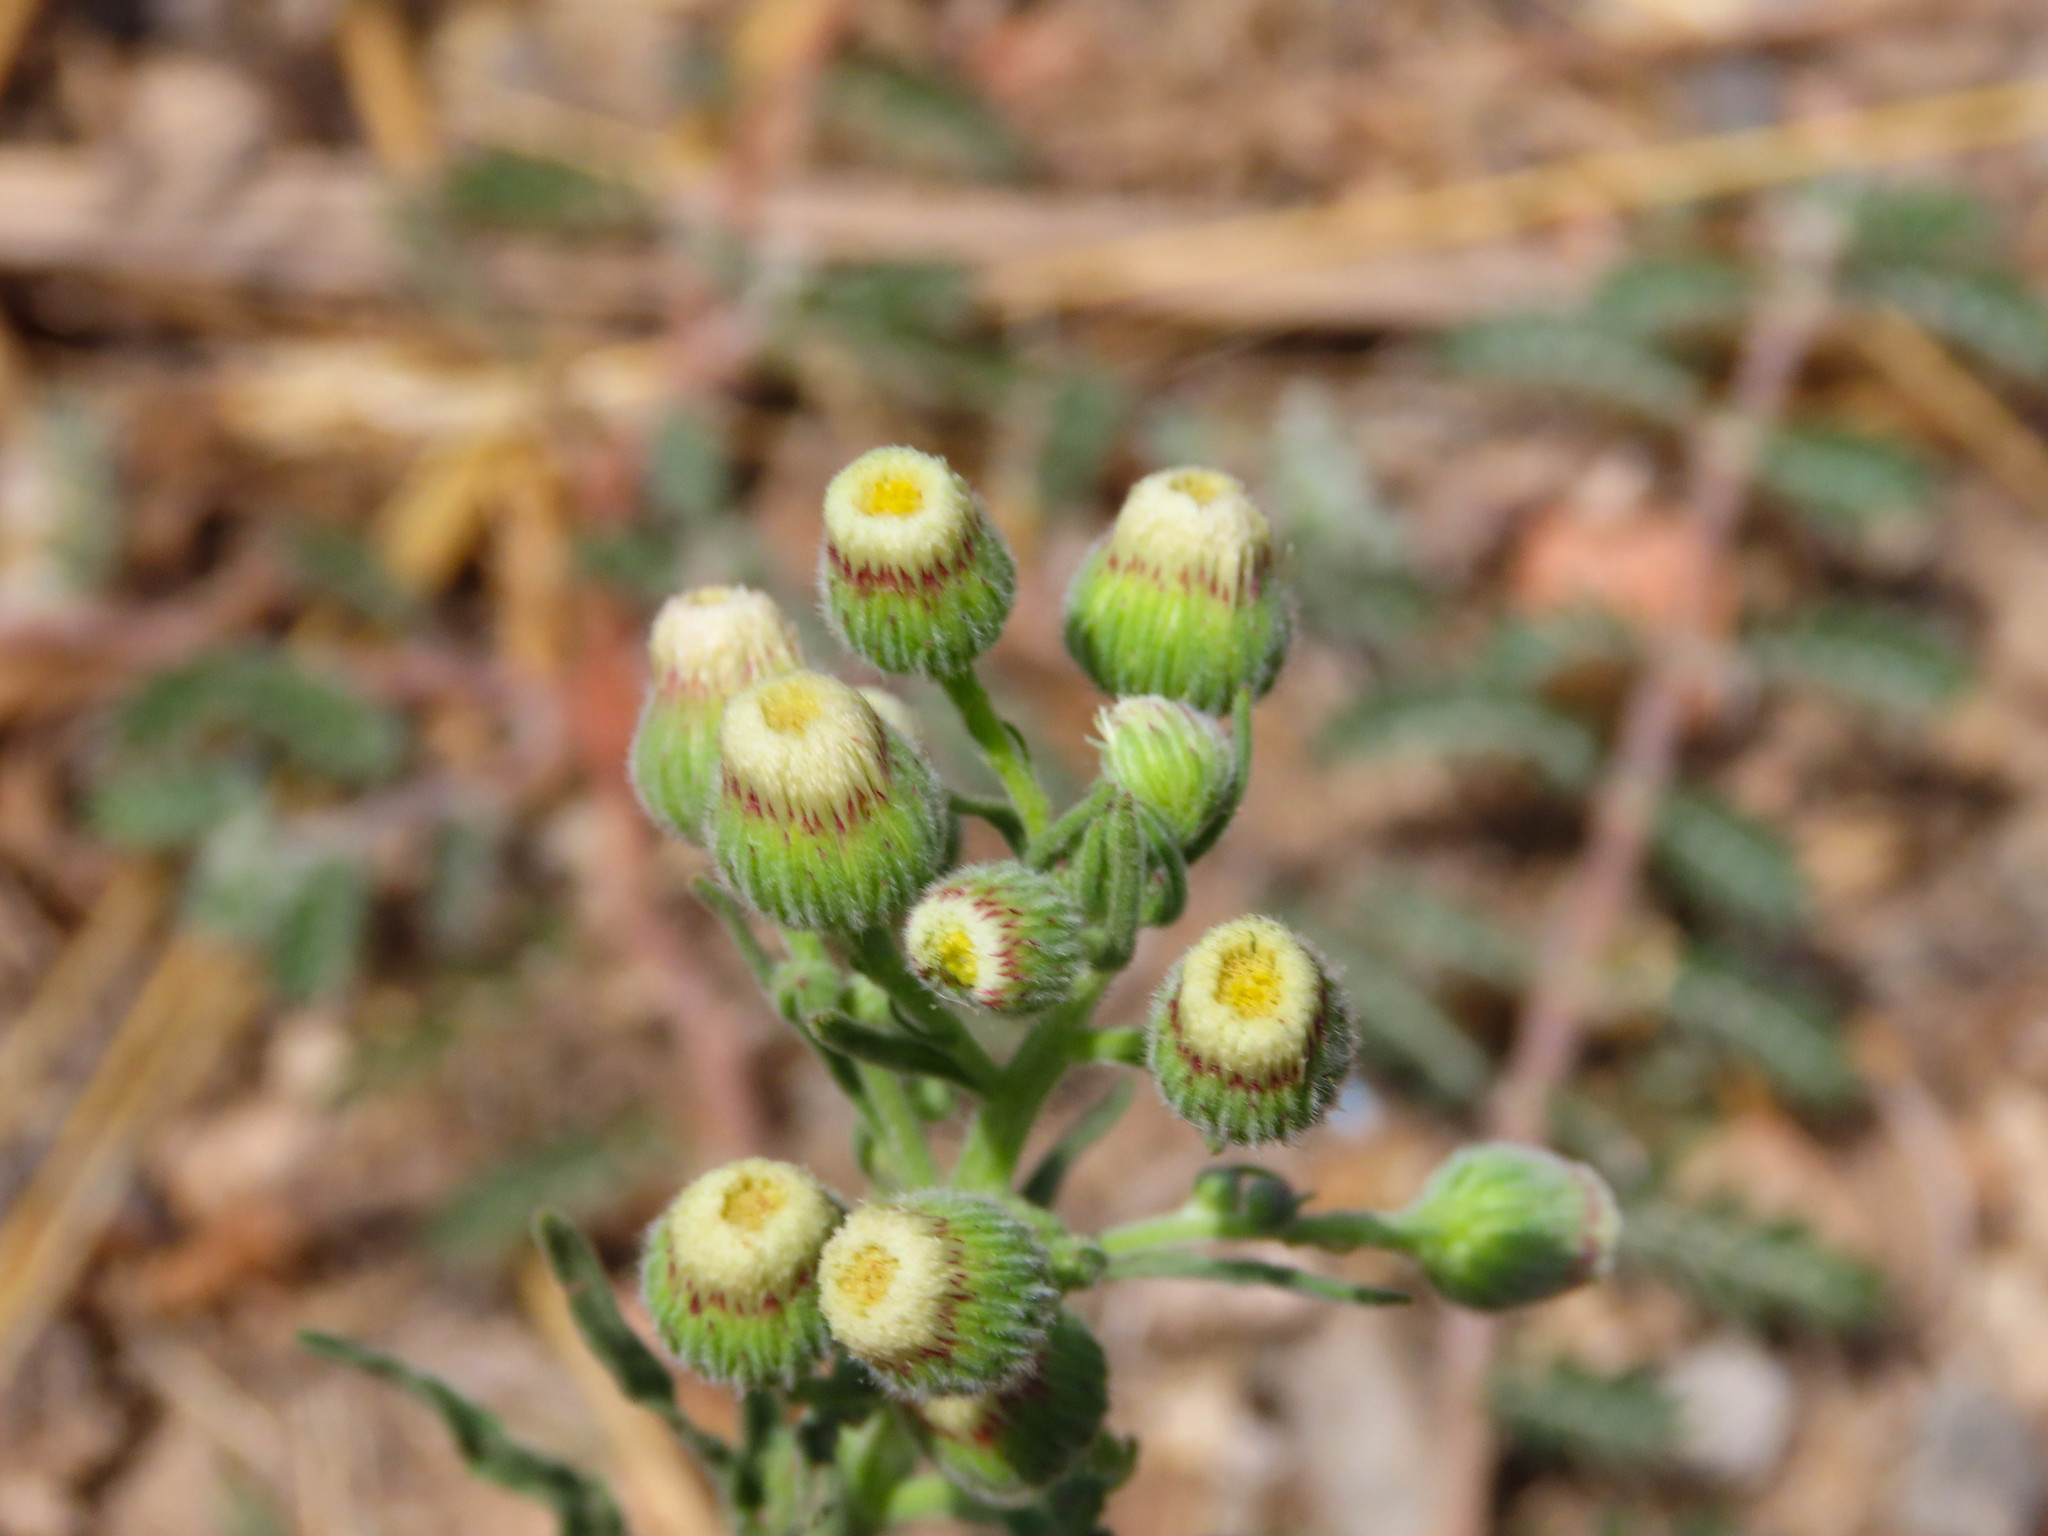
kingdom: Plantae
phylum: Tracheophyta
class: Magnoliopsida
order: Asterales
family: Asteraceae
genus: Erigeron
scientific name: Erigeron bonariensis
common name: Argentine fleabane
